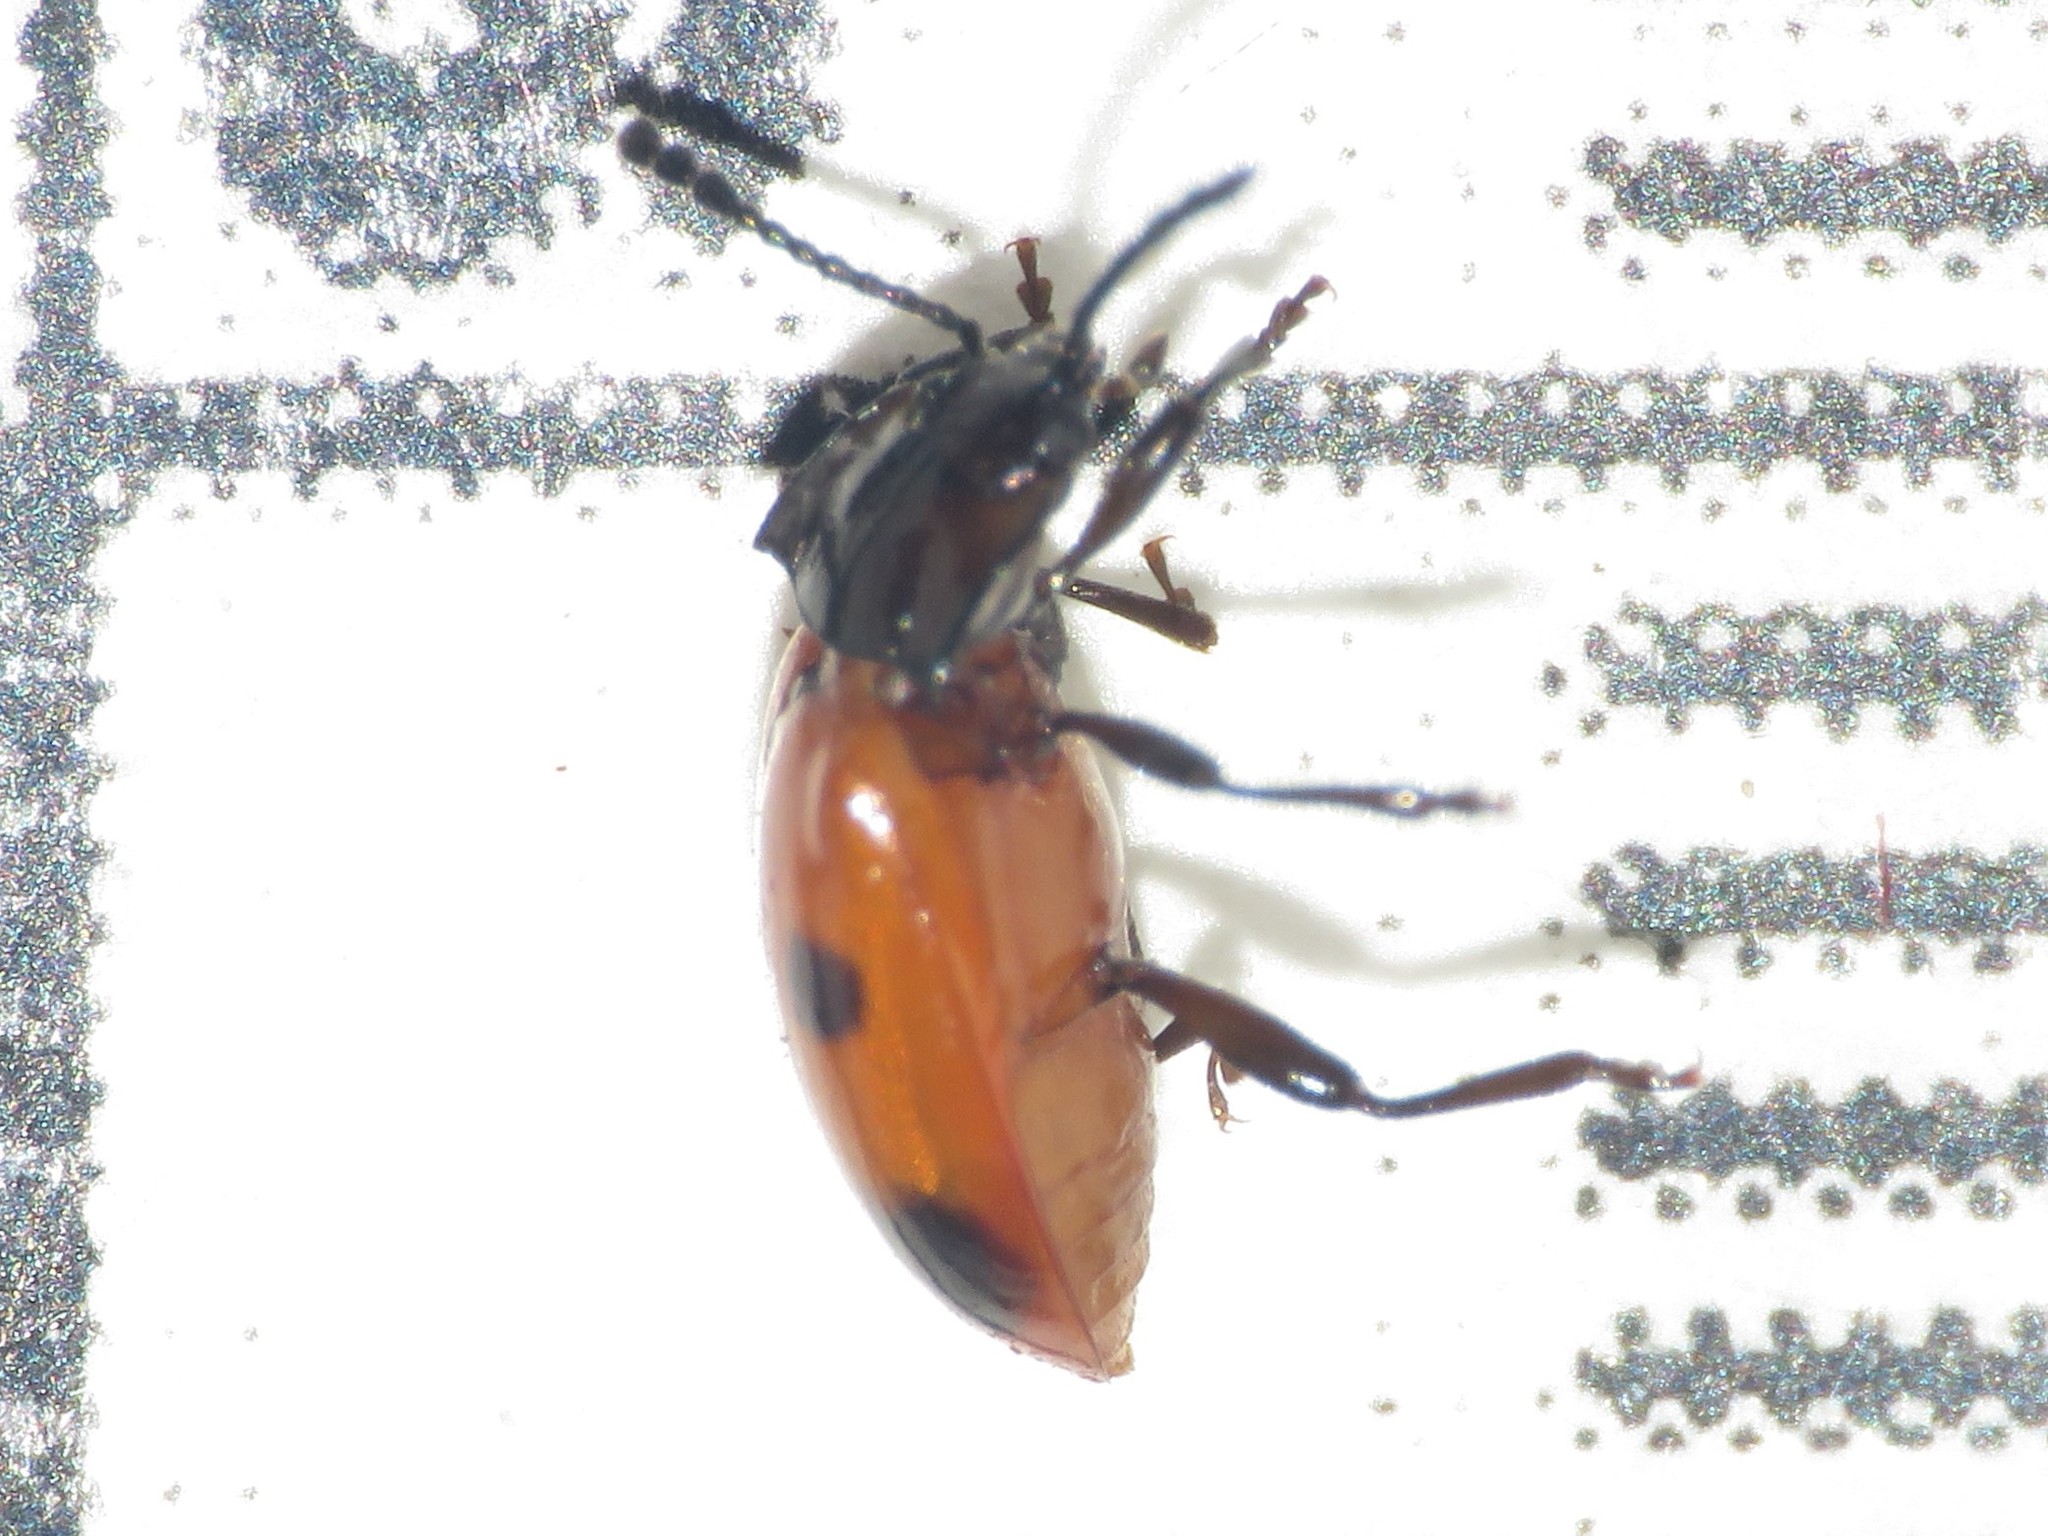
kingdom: Animalia
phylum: Arthropoda
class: Insecta
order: Coleoptera
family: Endomychidae
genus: Endomychus
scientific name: Endomychus biguttatus
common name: Handsome fungus beetle
